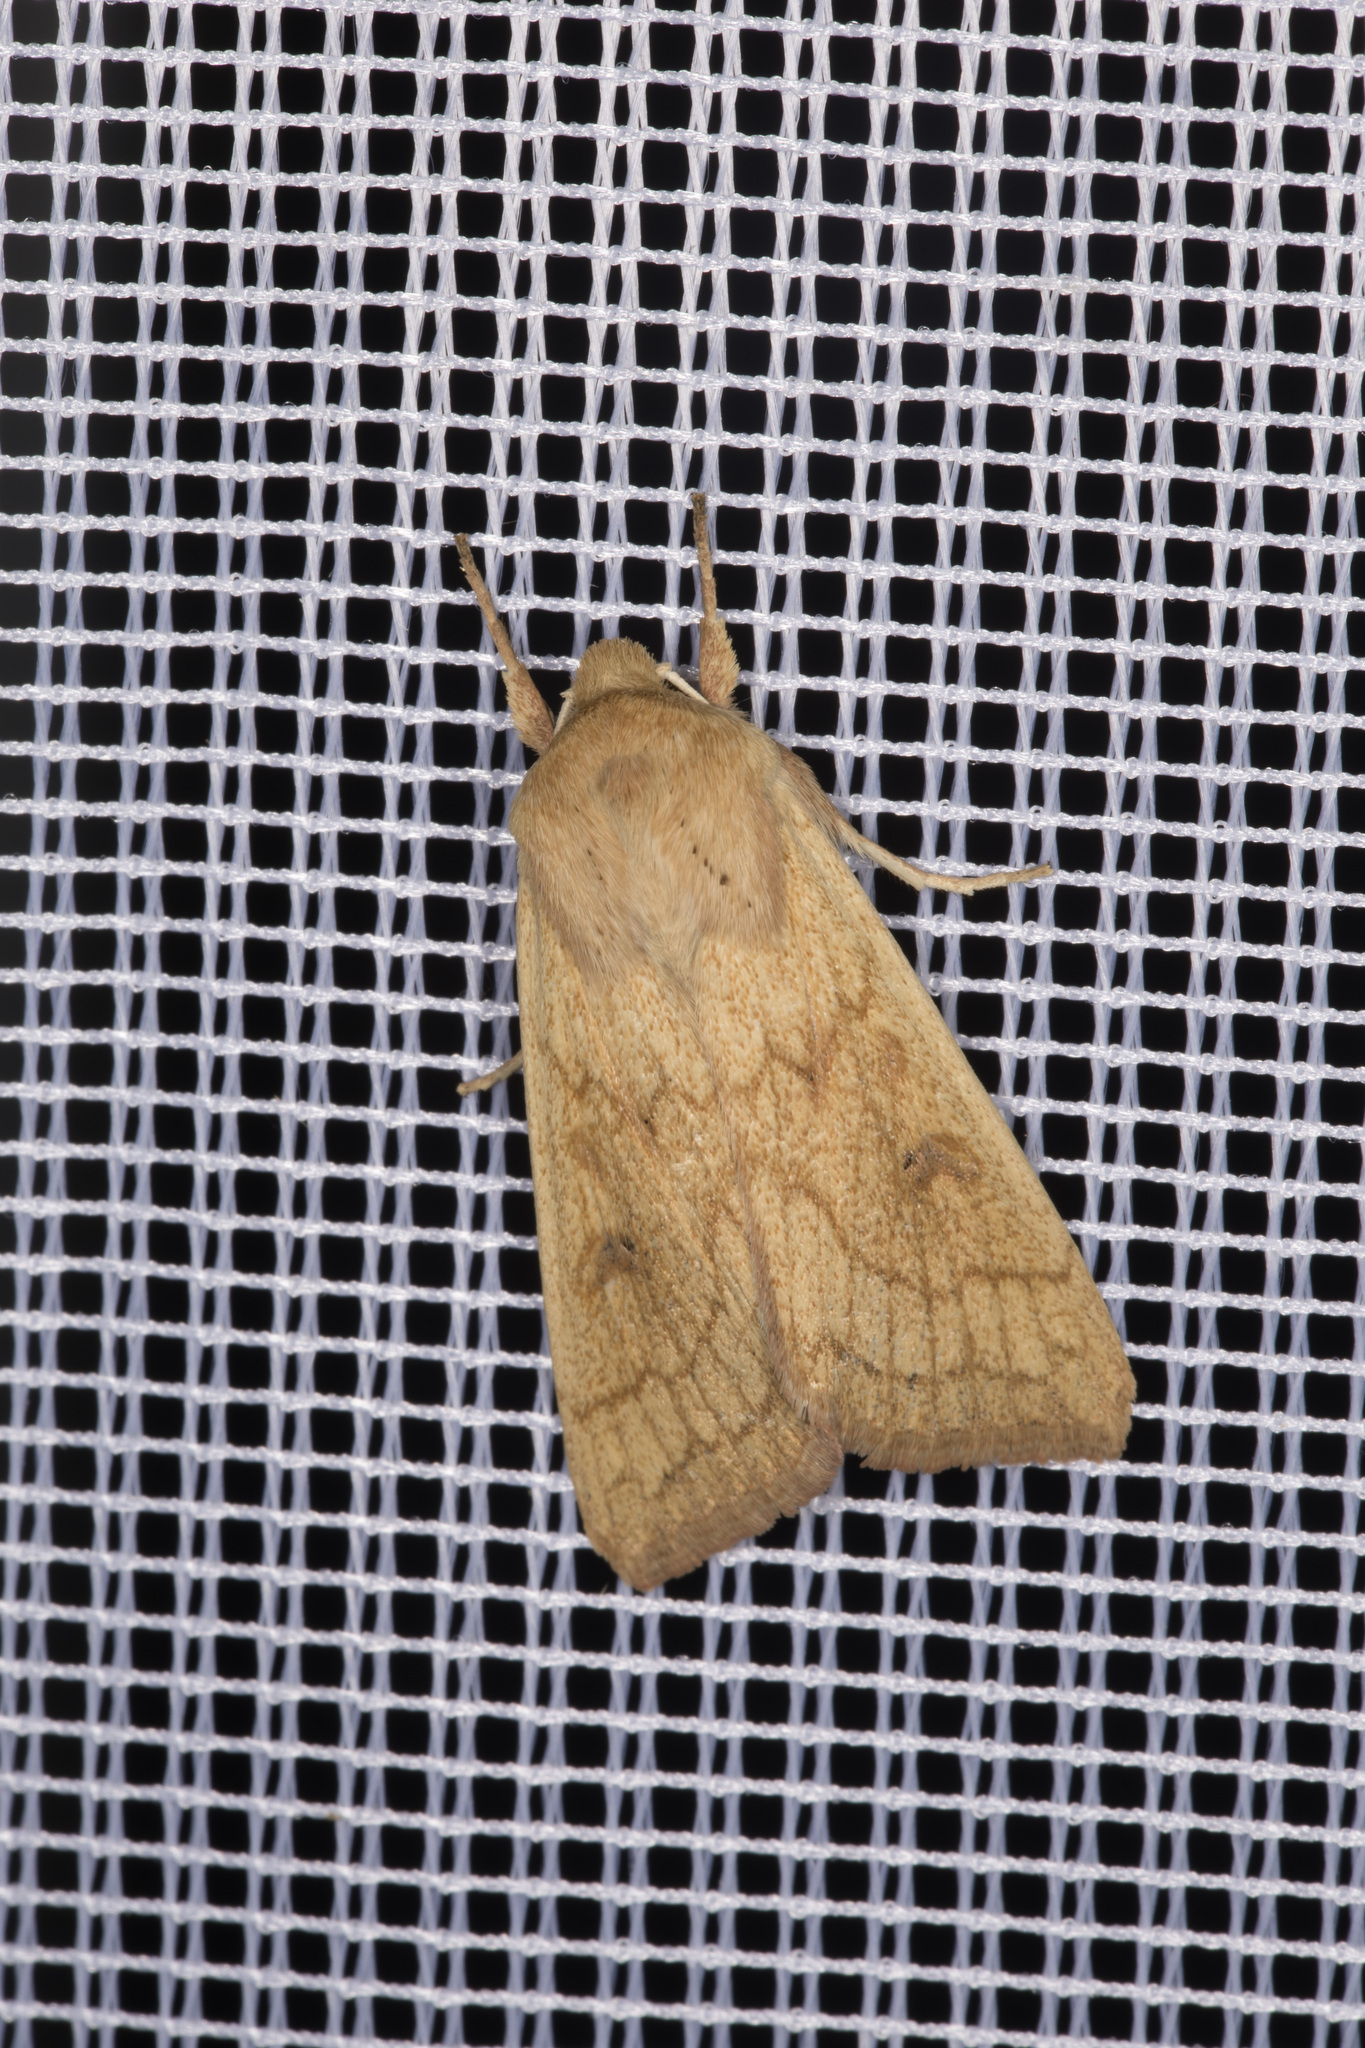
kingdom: Animalia
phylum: Arthropoda
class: Insecta
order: Lepidoptera
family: Noctuidae
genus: Mythimna
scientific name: Mythimna vitellina
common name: Delicate
